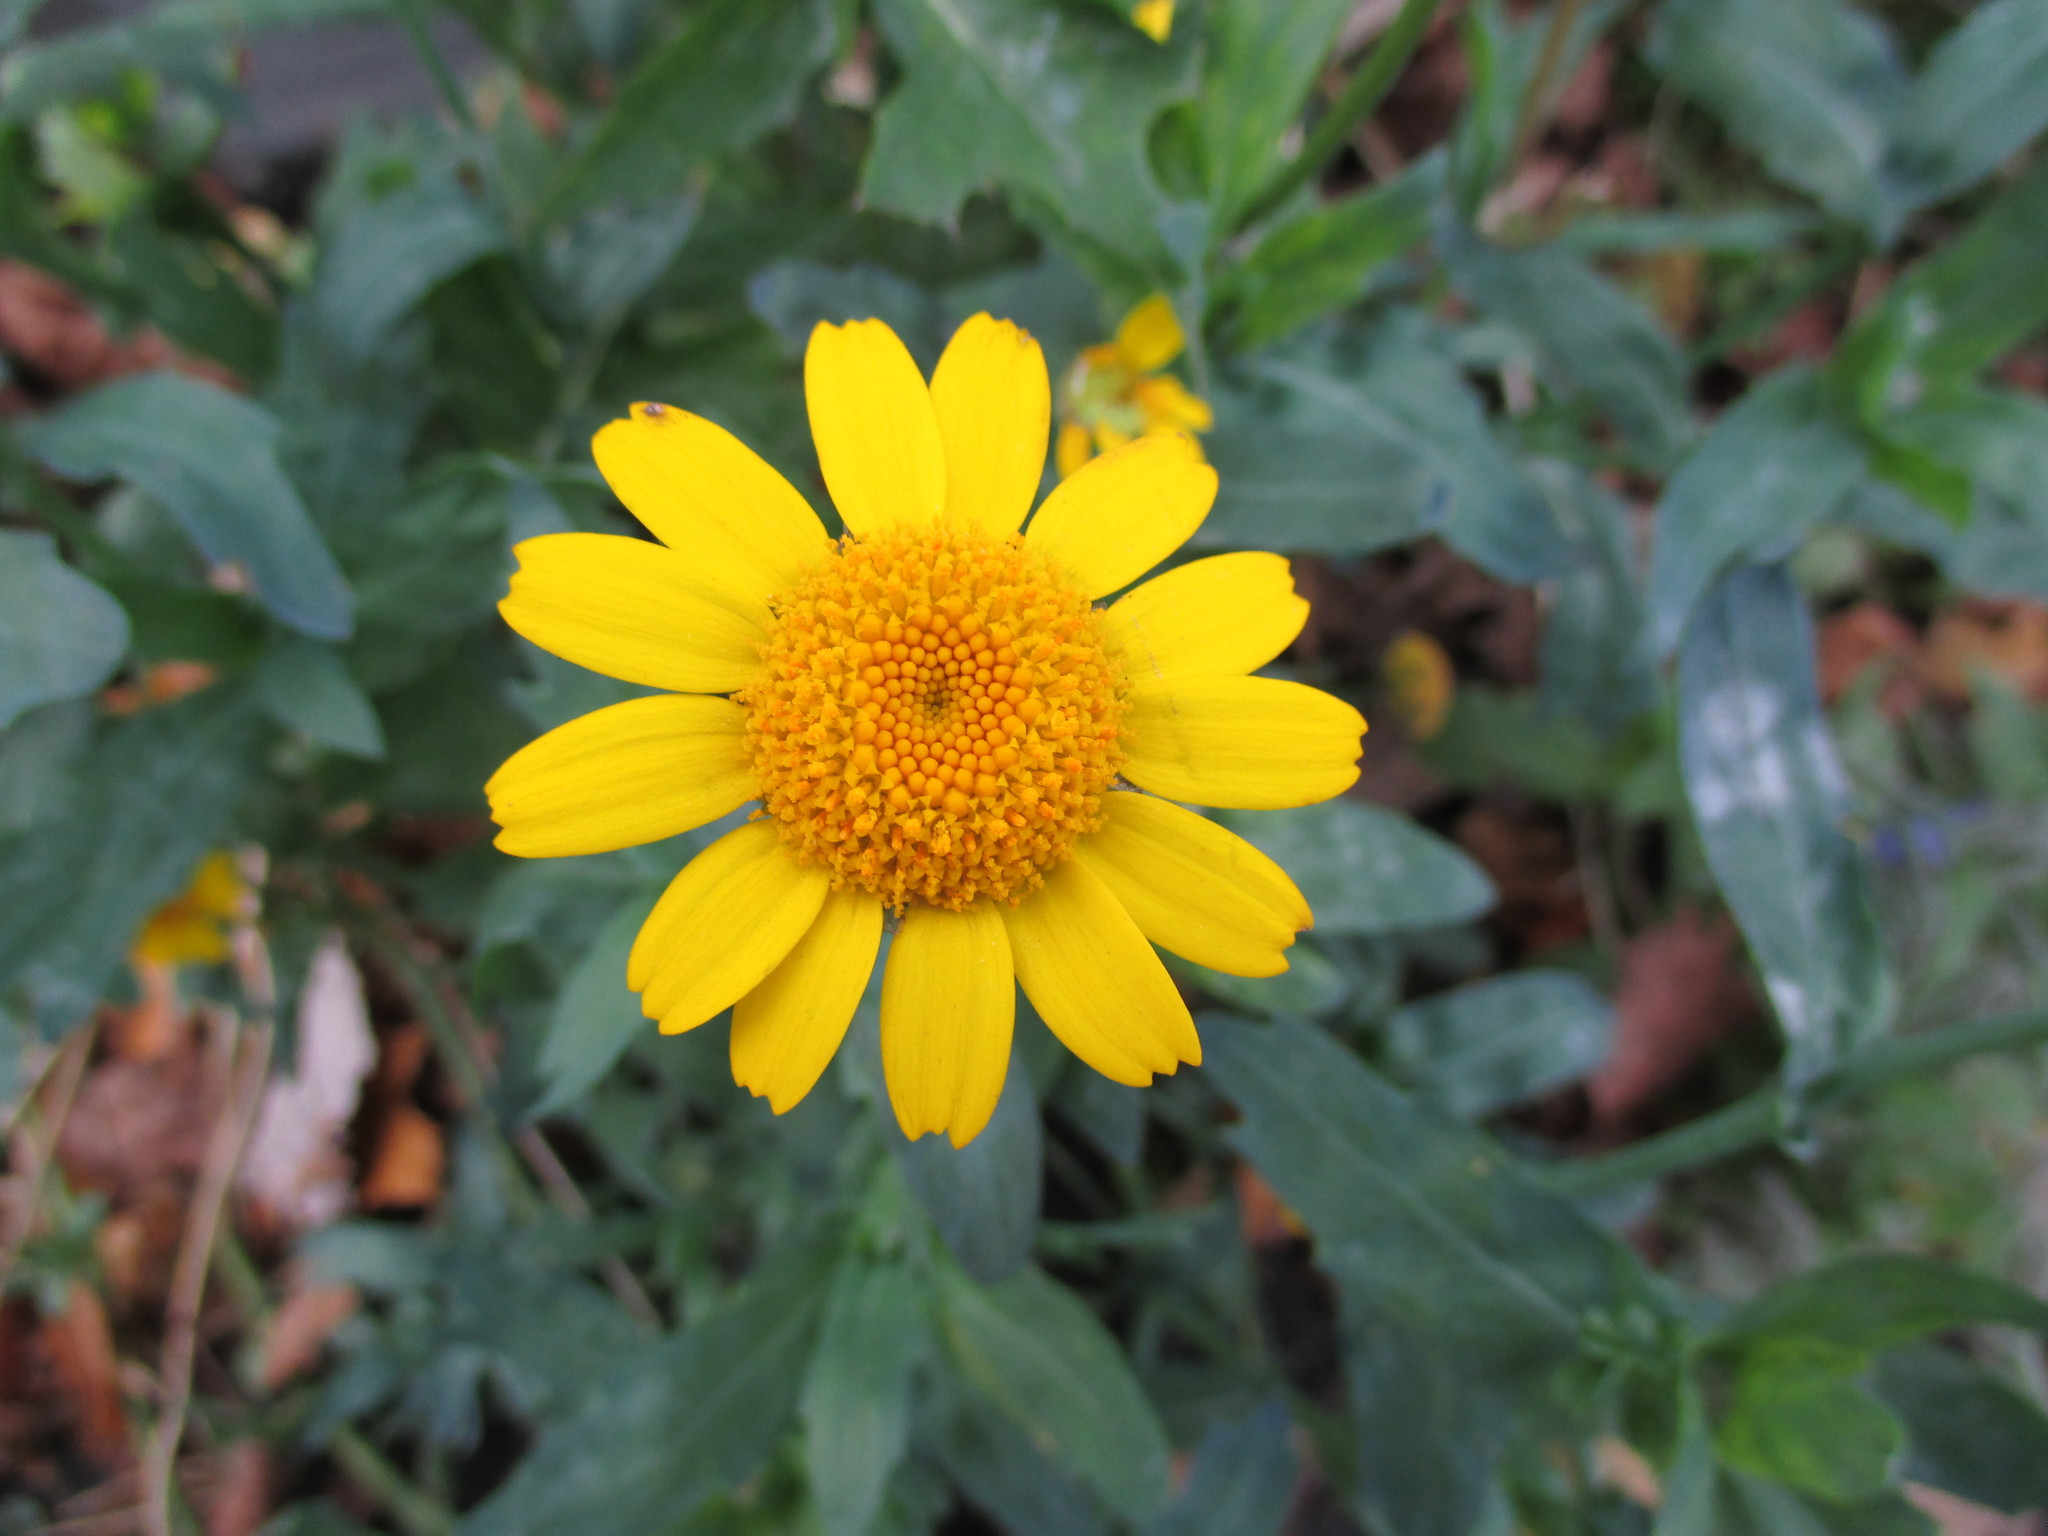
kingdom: Plantae
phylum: Tracheophyta
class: Magnoliopsida
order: Asterales
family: Asteraceae
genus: Glebionis
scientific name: Glebionis segetum
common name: Corndaisy
